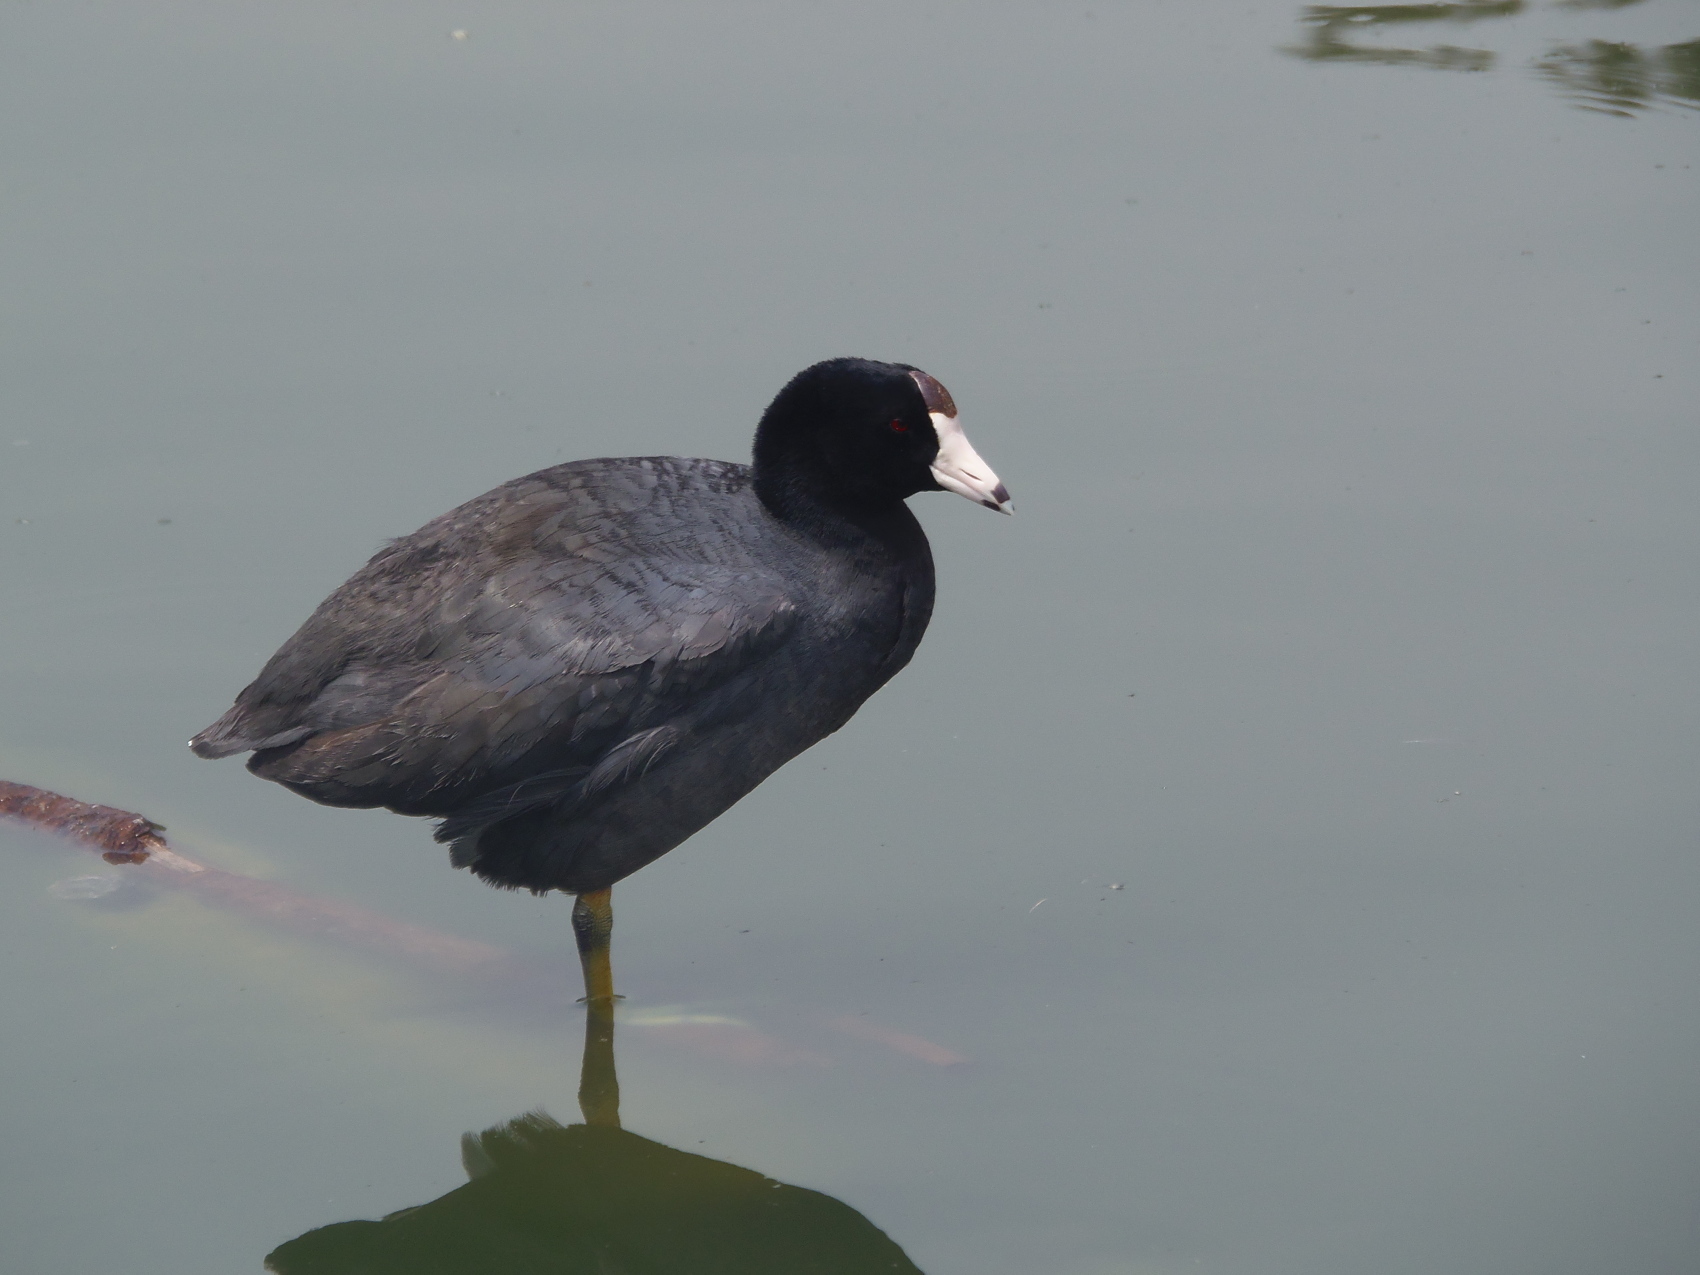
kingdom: Animalia
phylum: Chordata
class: Aves
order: Gruiformes
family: Rallidae
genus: Fulica
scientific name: Fulica americana
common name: American coot
